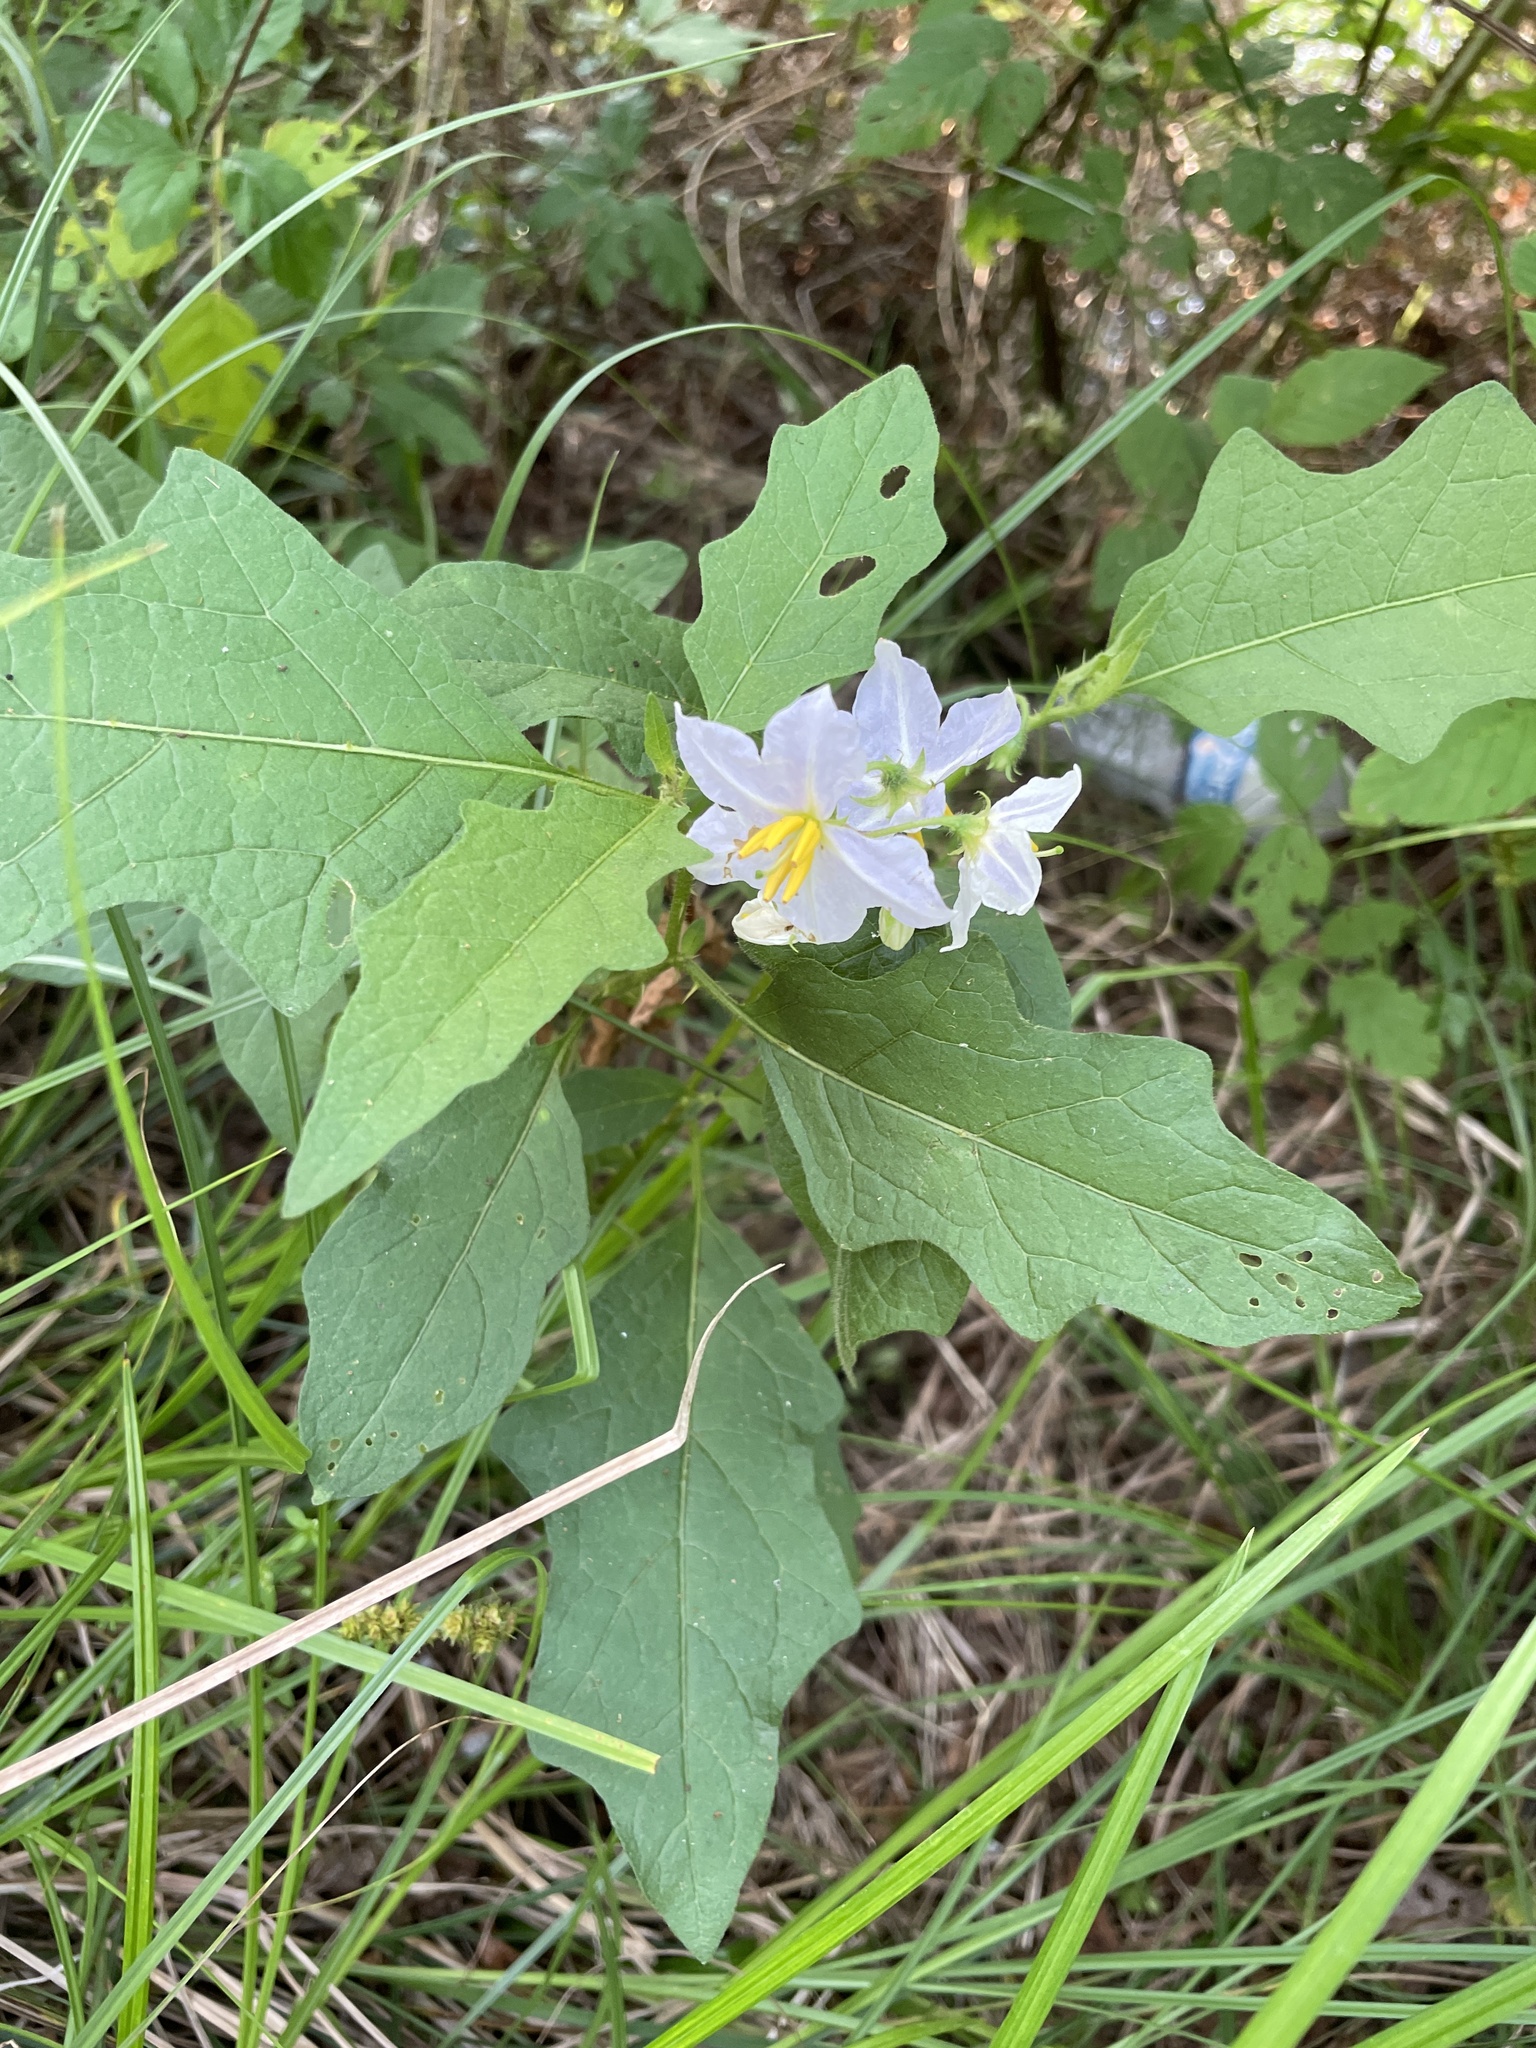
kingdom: Plantae
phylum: Tracheophyta
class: Magnoliopsida
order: Solanales
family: Solanaceae
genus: Solanum
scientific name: Solanum carolinense
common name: Horse-nettle
